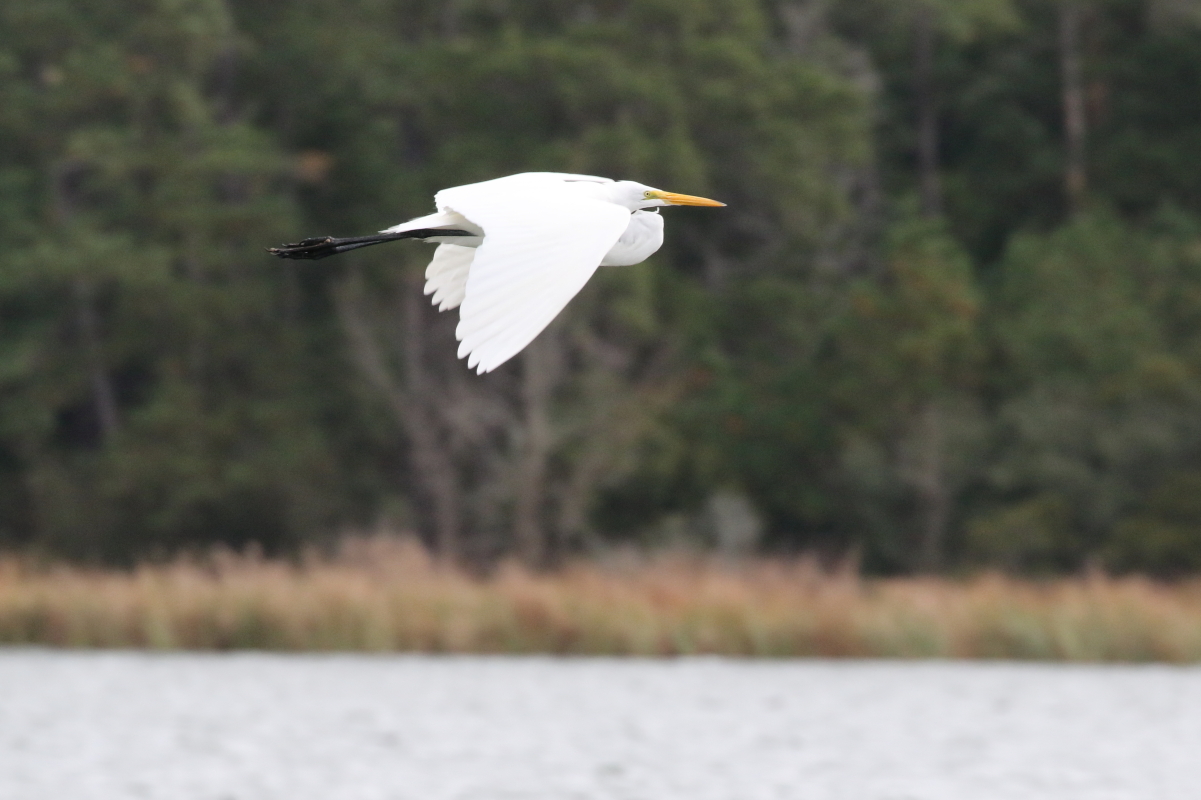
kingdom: Animalia
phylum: Chordata
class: Aves
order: Pelecaniformes
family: Ardeidae
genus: Ardea
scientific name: Ardea alba
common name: Great egret
